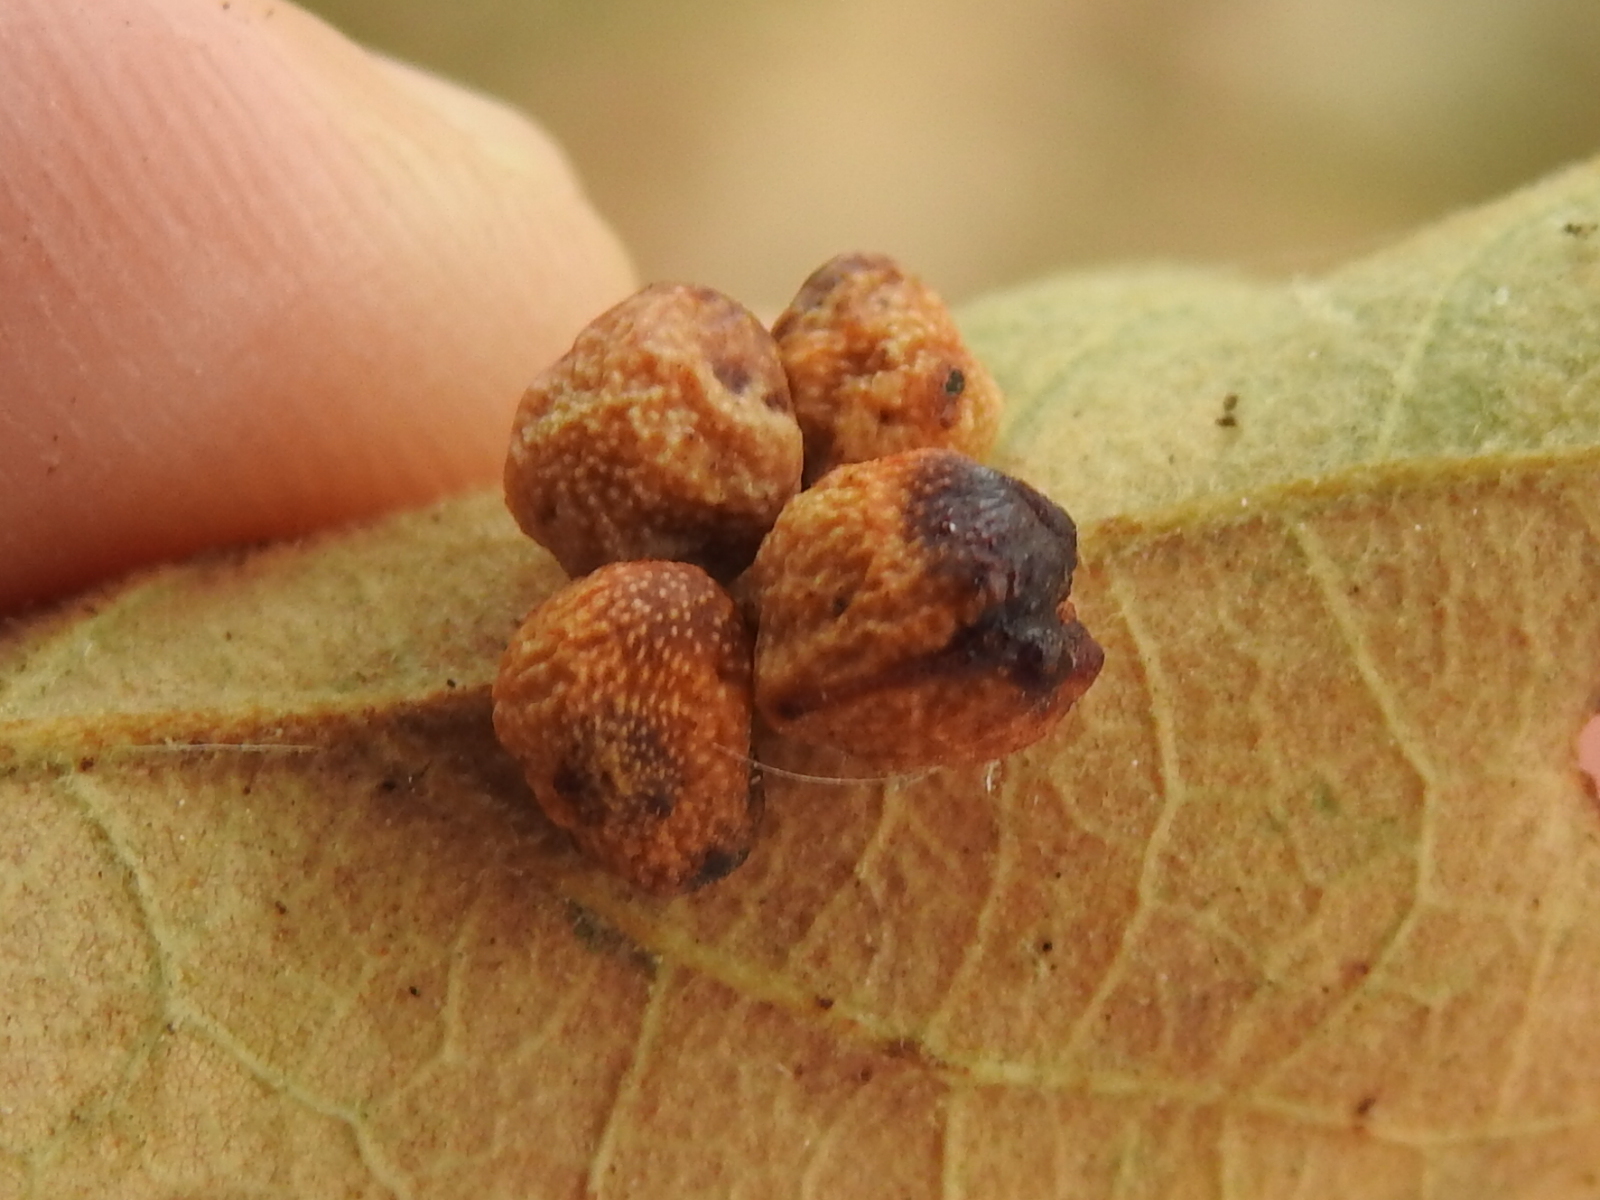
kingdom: Animalia
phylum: Arthropoda
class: Insecta
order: Hymenoptera
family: Cynipidae
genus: Andricus
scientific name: Andricus lustrans
